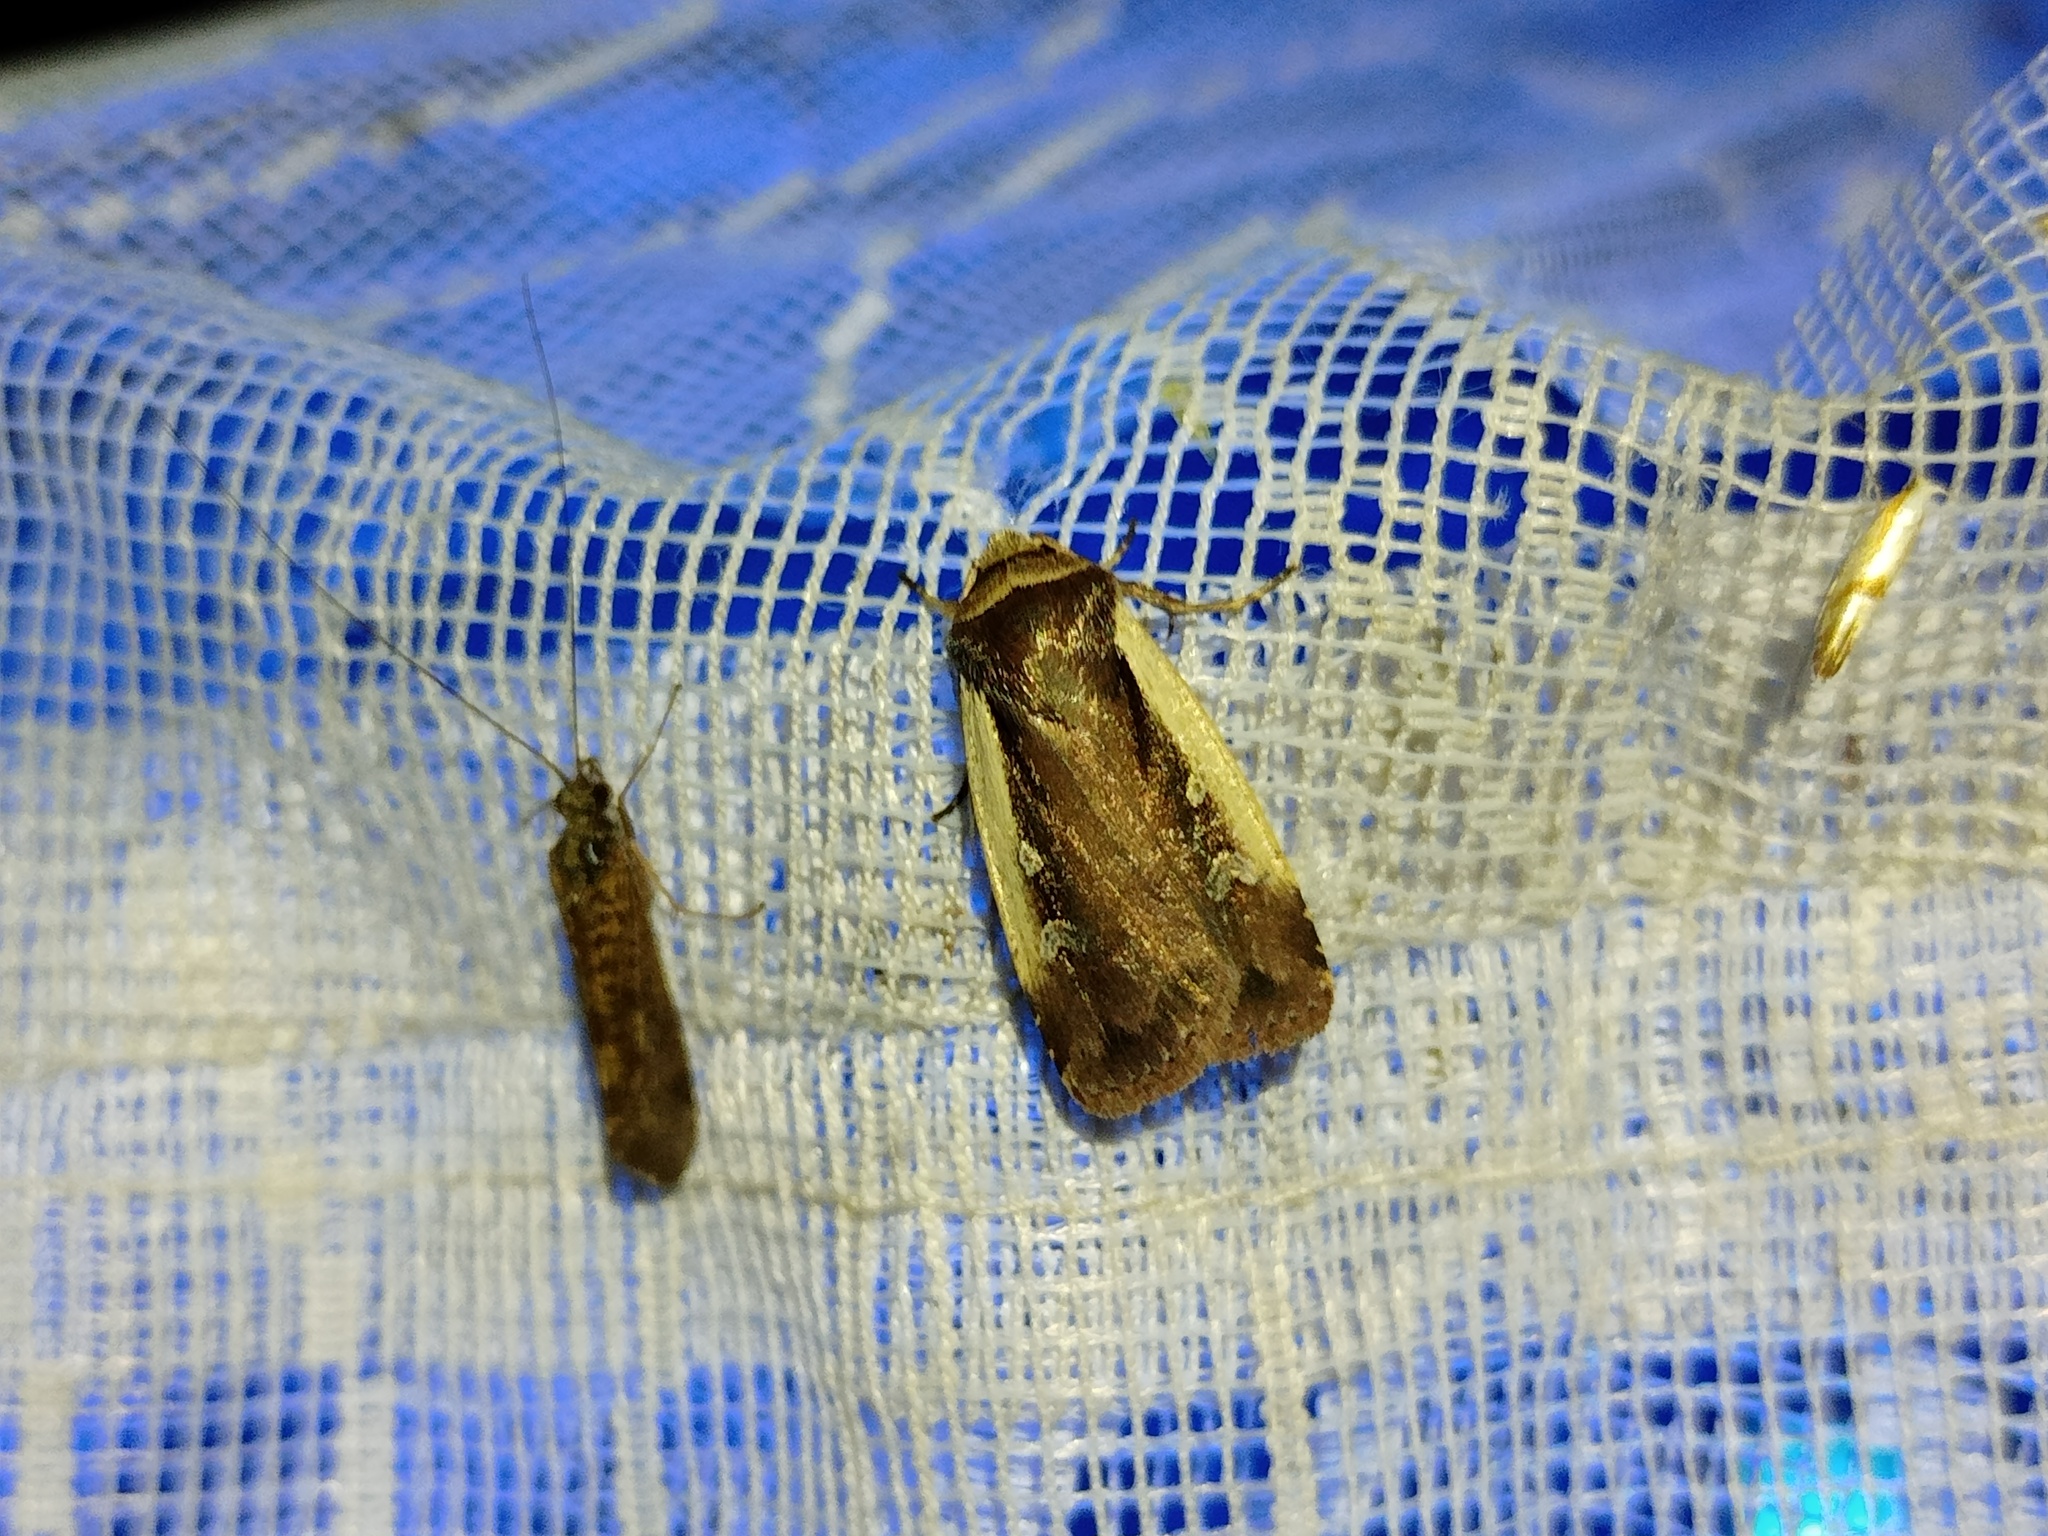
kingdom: Animalia
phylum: Arthropoda
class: Insecta
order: Lepidoptera
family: Noctuidae
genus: Ochropleura
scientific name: Ochropleura plecta
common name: Flame shoulder
